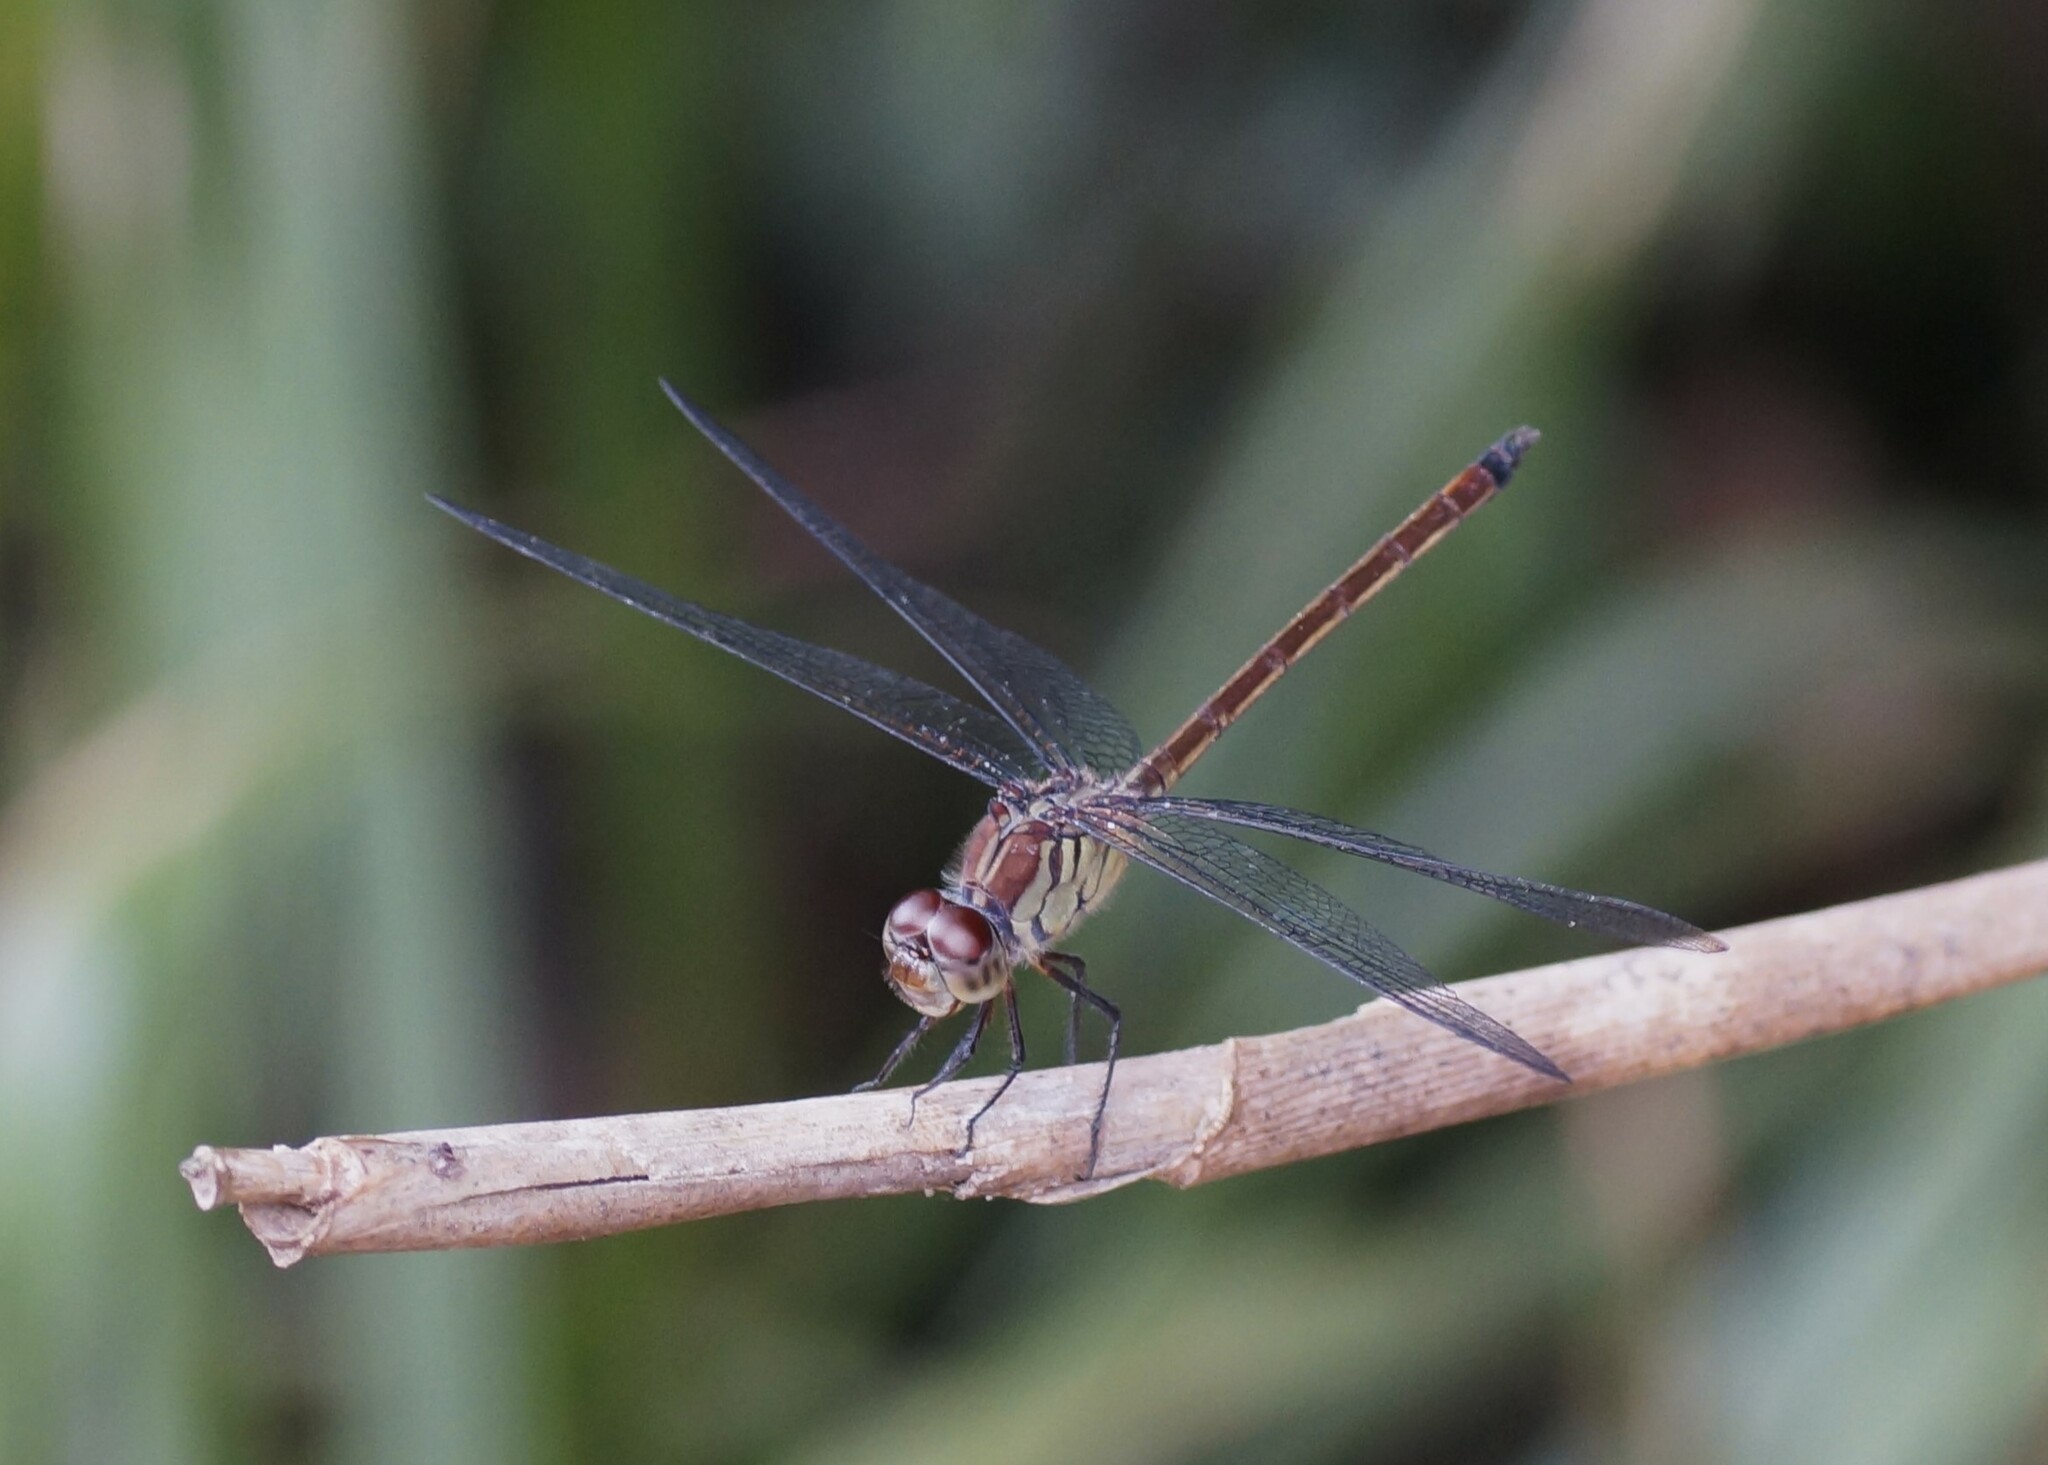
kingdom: Animalia
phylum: Arthropoda
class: Insecta
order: Odonata
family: Libellulidae
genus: Lathrecista
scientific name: Lathrecista asiatica
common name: Scarlet grenadier
